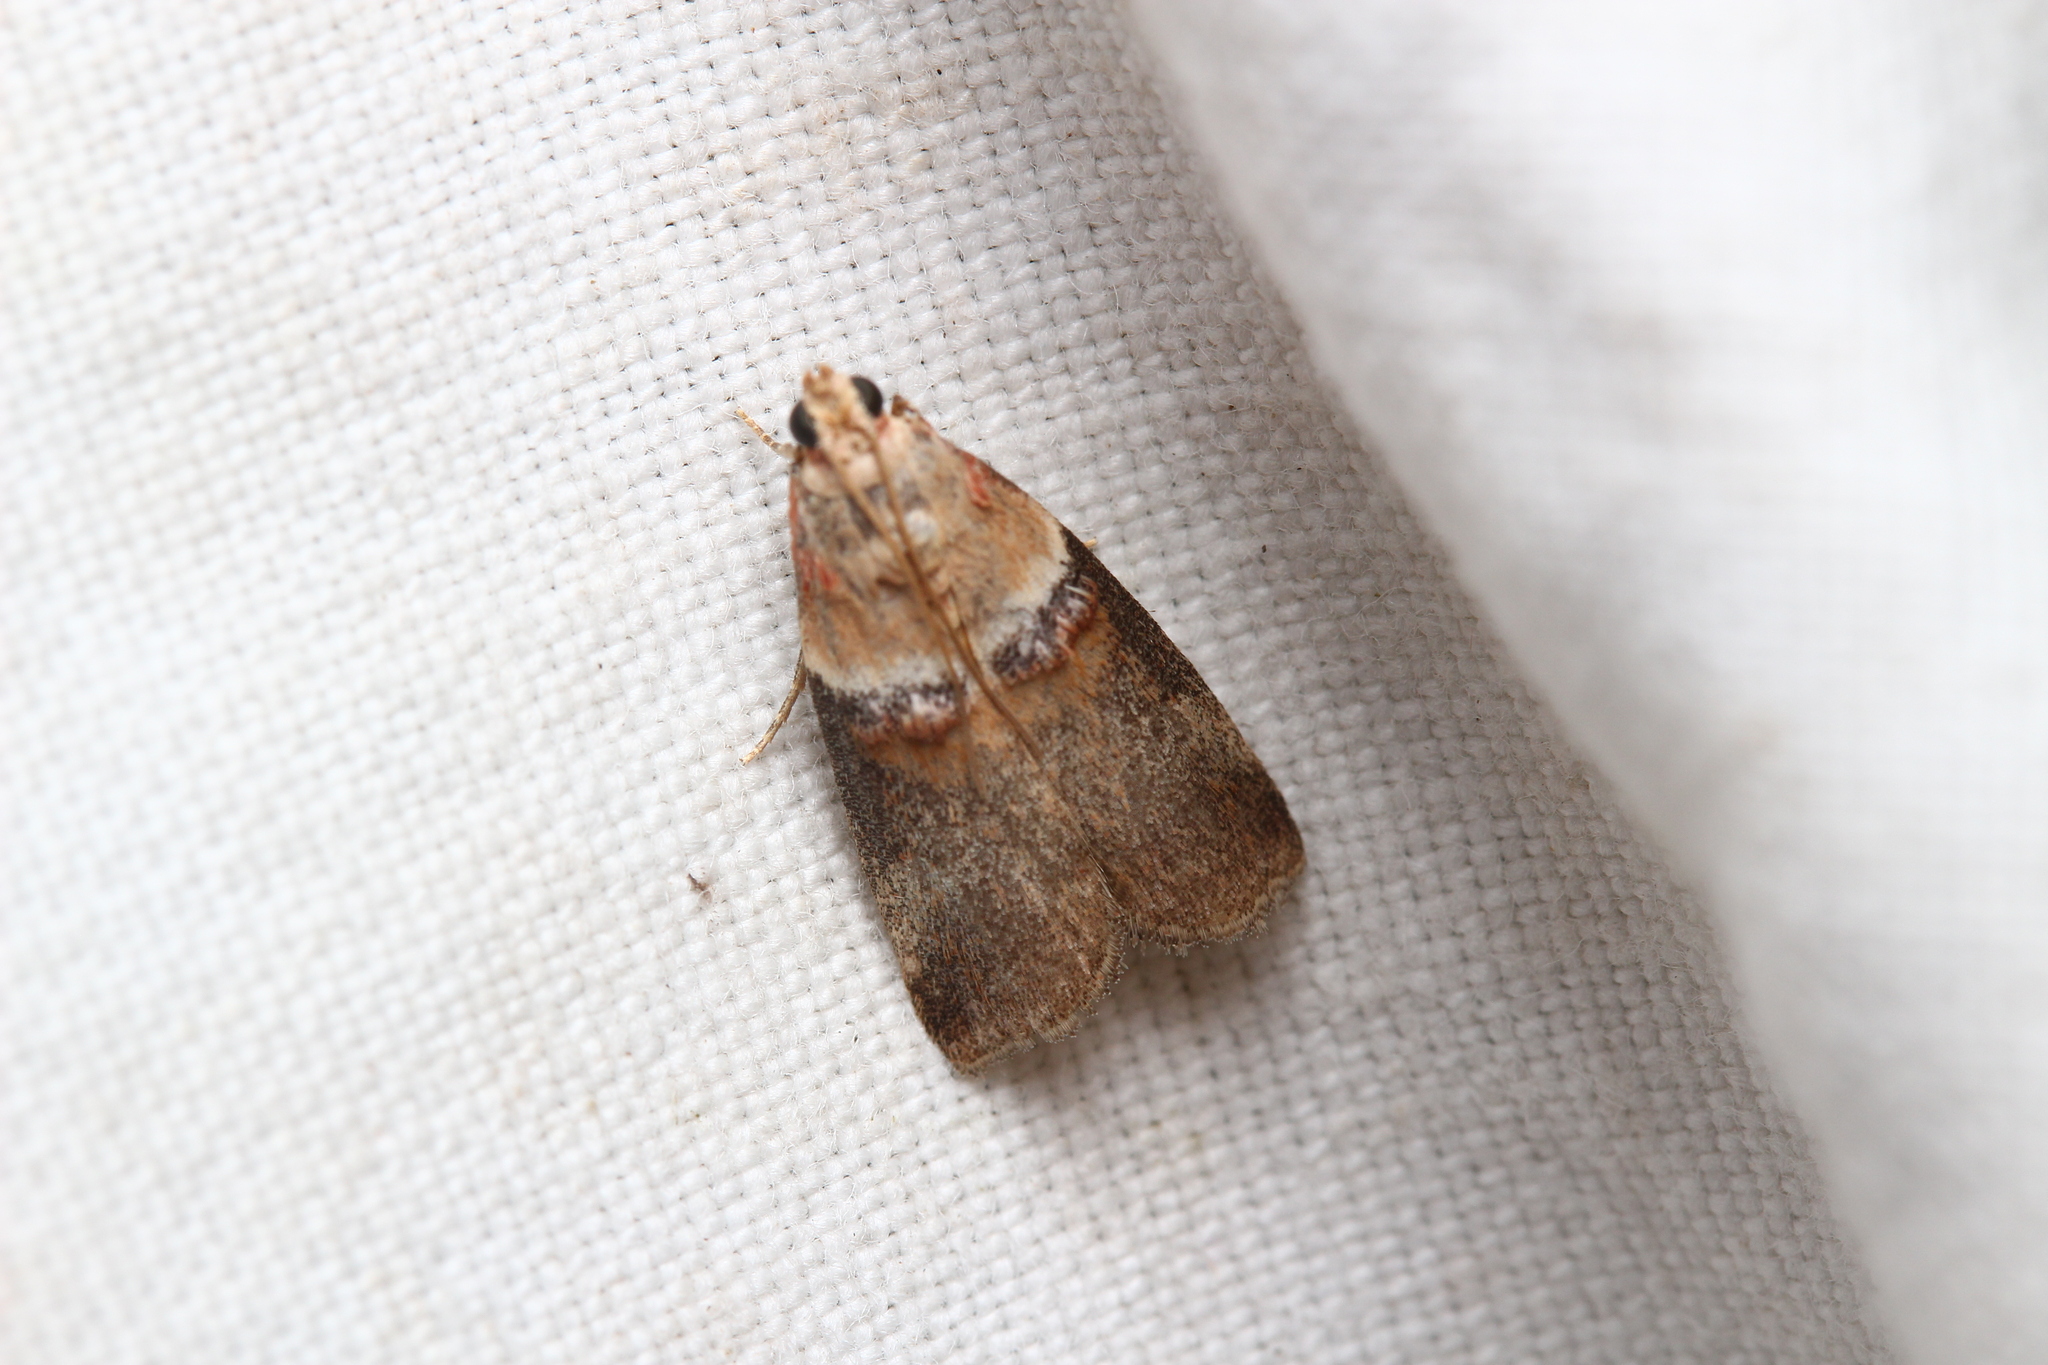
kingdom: Animalia
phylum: Arthropoda
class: Insecta
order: Lepidoptera
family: Pyralidae
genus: Acrobasis
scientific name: Acrobasis tumidana
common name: Scarce oak knot-horn
